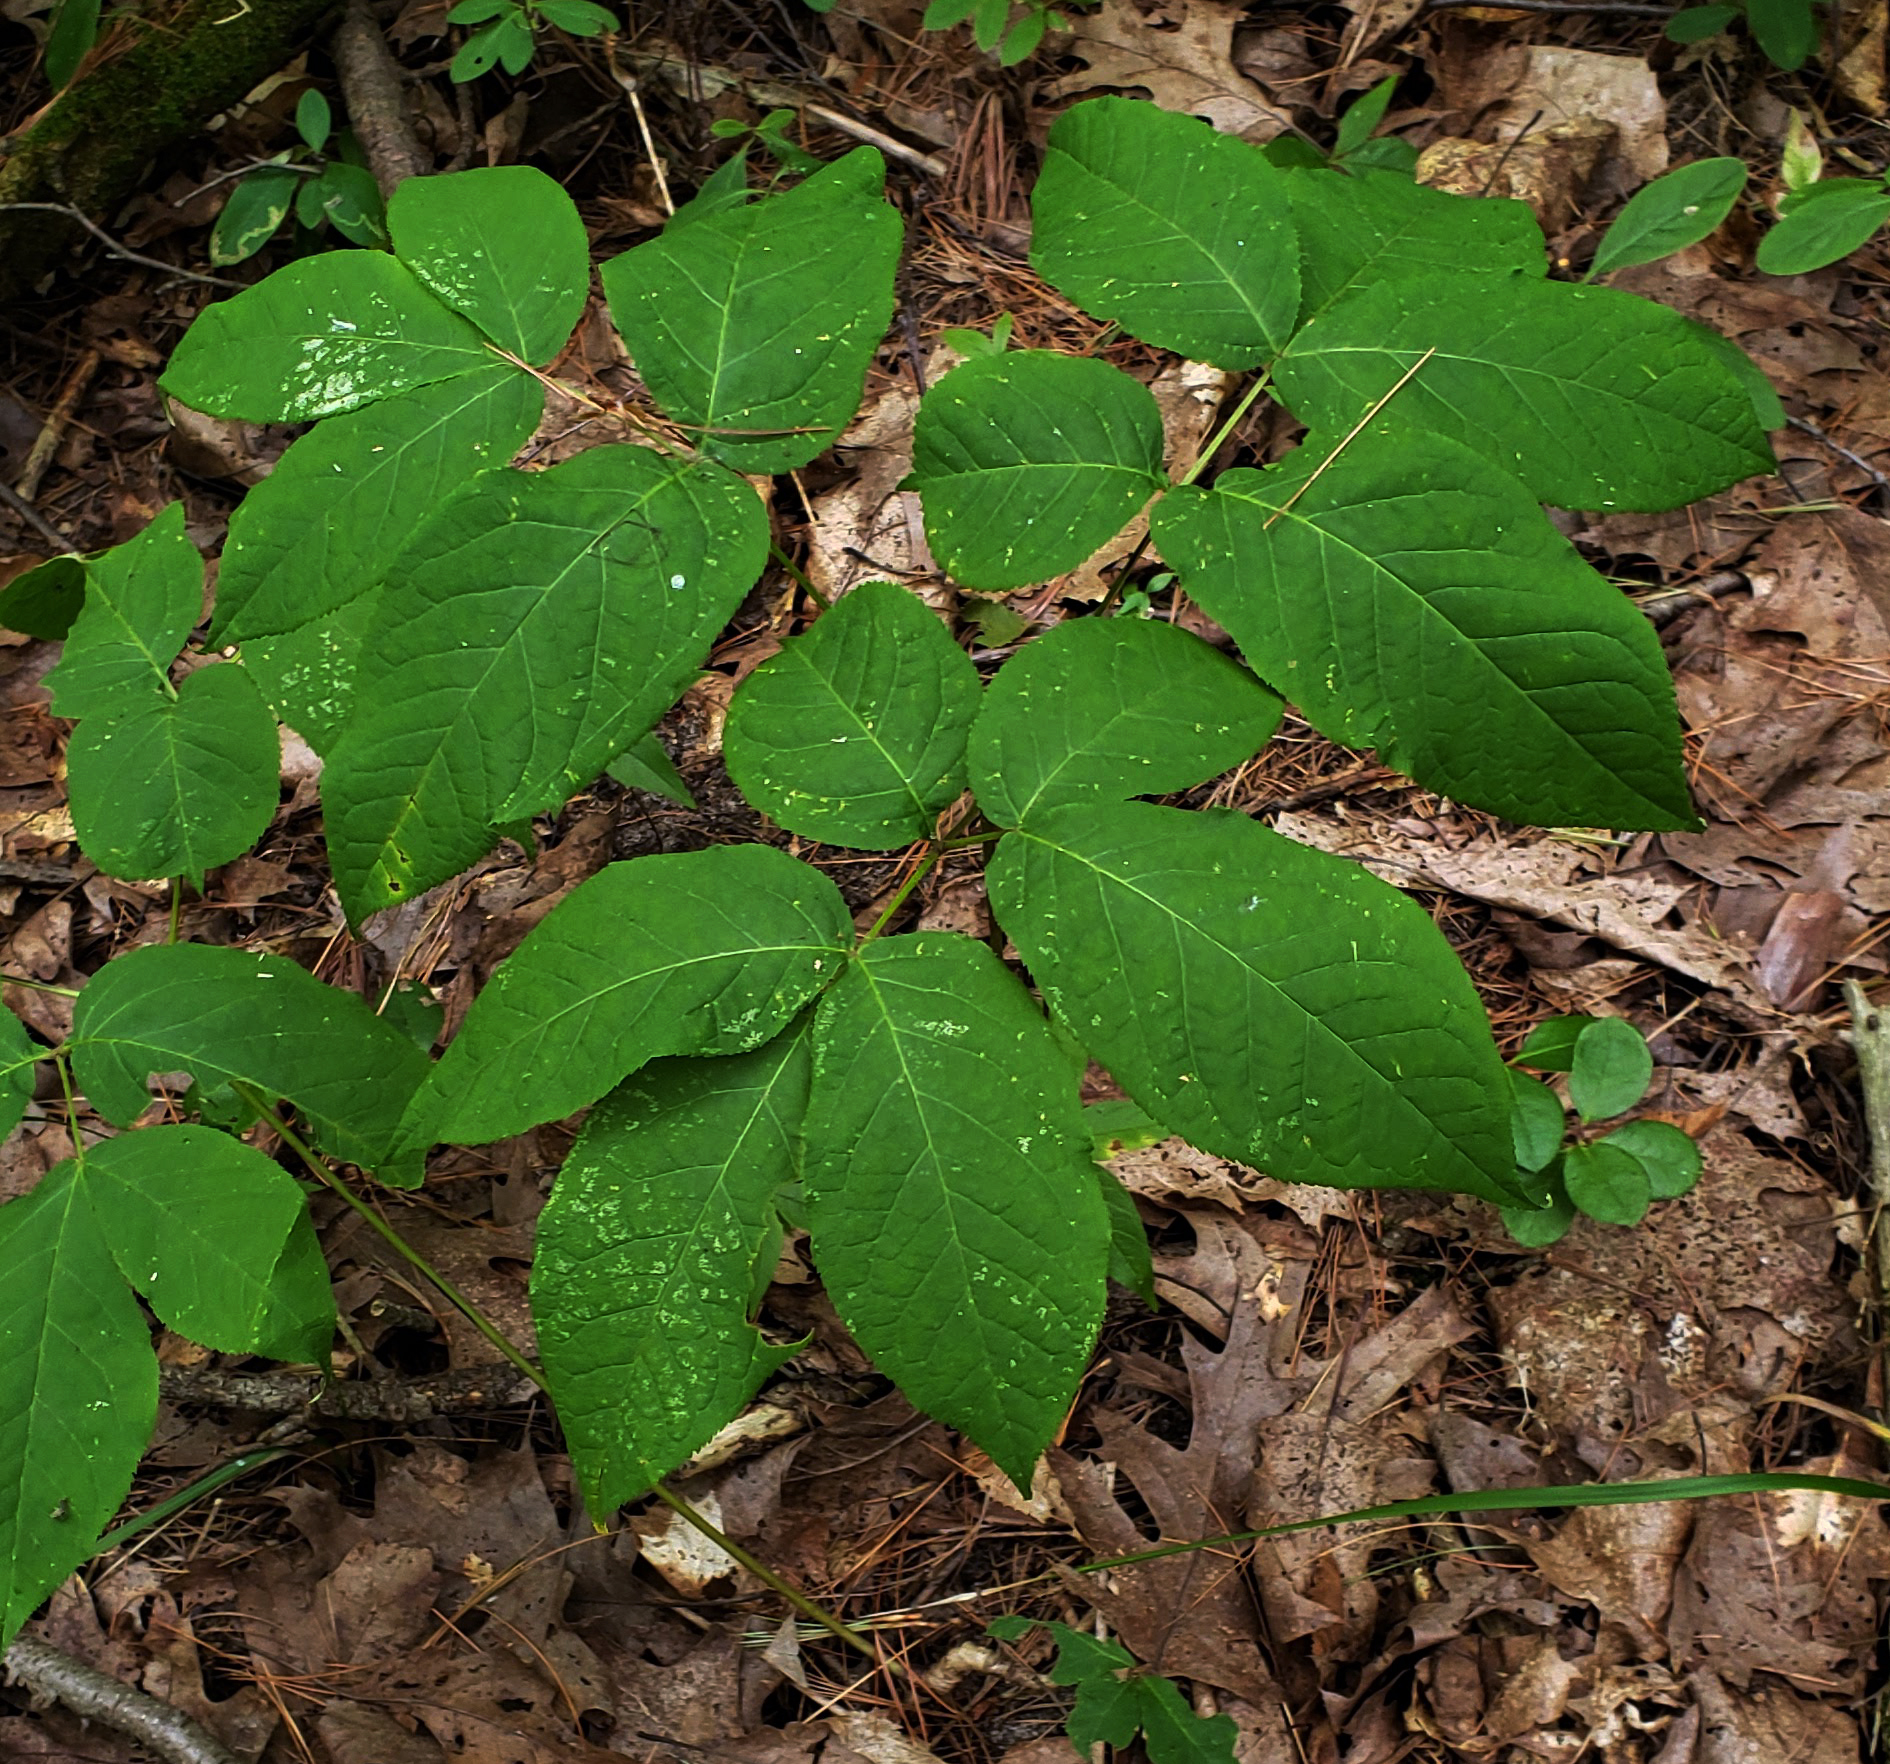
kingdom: Plantae
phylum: Tracheophyta
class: Magnoliopsida
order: Apiales
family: Araliaceae
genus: Aralia
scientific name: Aralia nudicaulis
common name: Wild sarsaparilla
